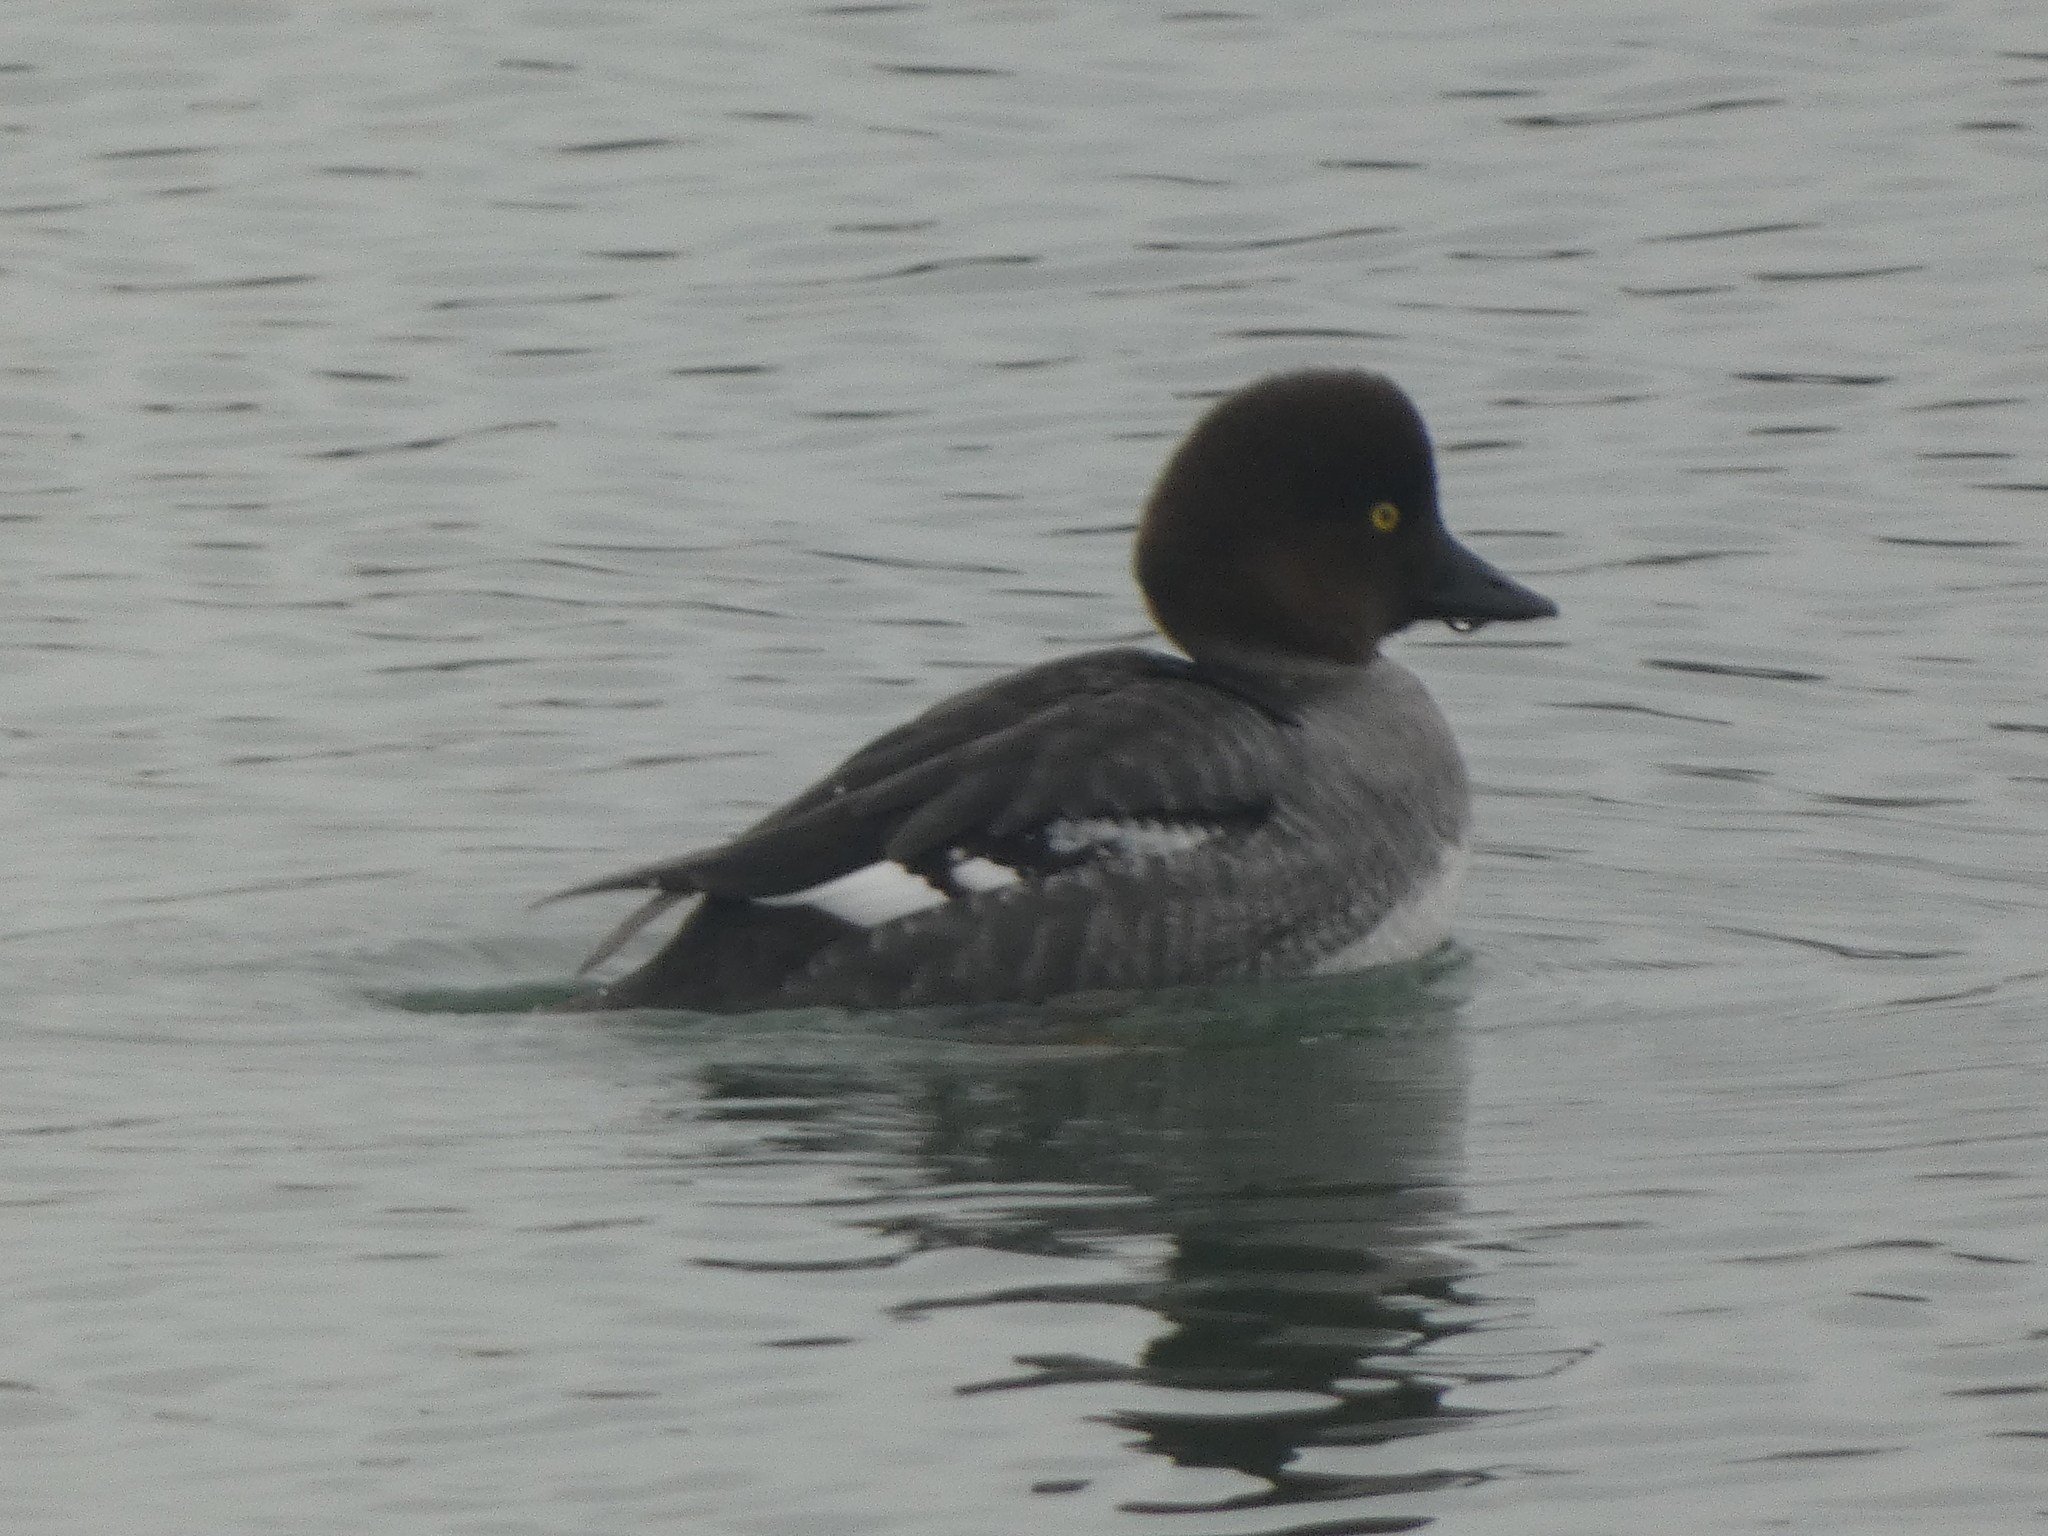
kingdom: Animalia
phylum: Chordata
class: Aves
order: Anseriformes
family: Anatidae
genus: Bucephala
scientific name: Bucephala clangula
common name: Common goldeneye
